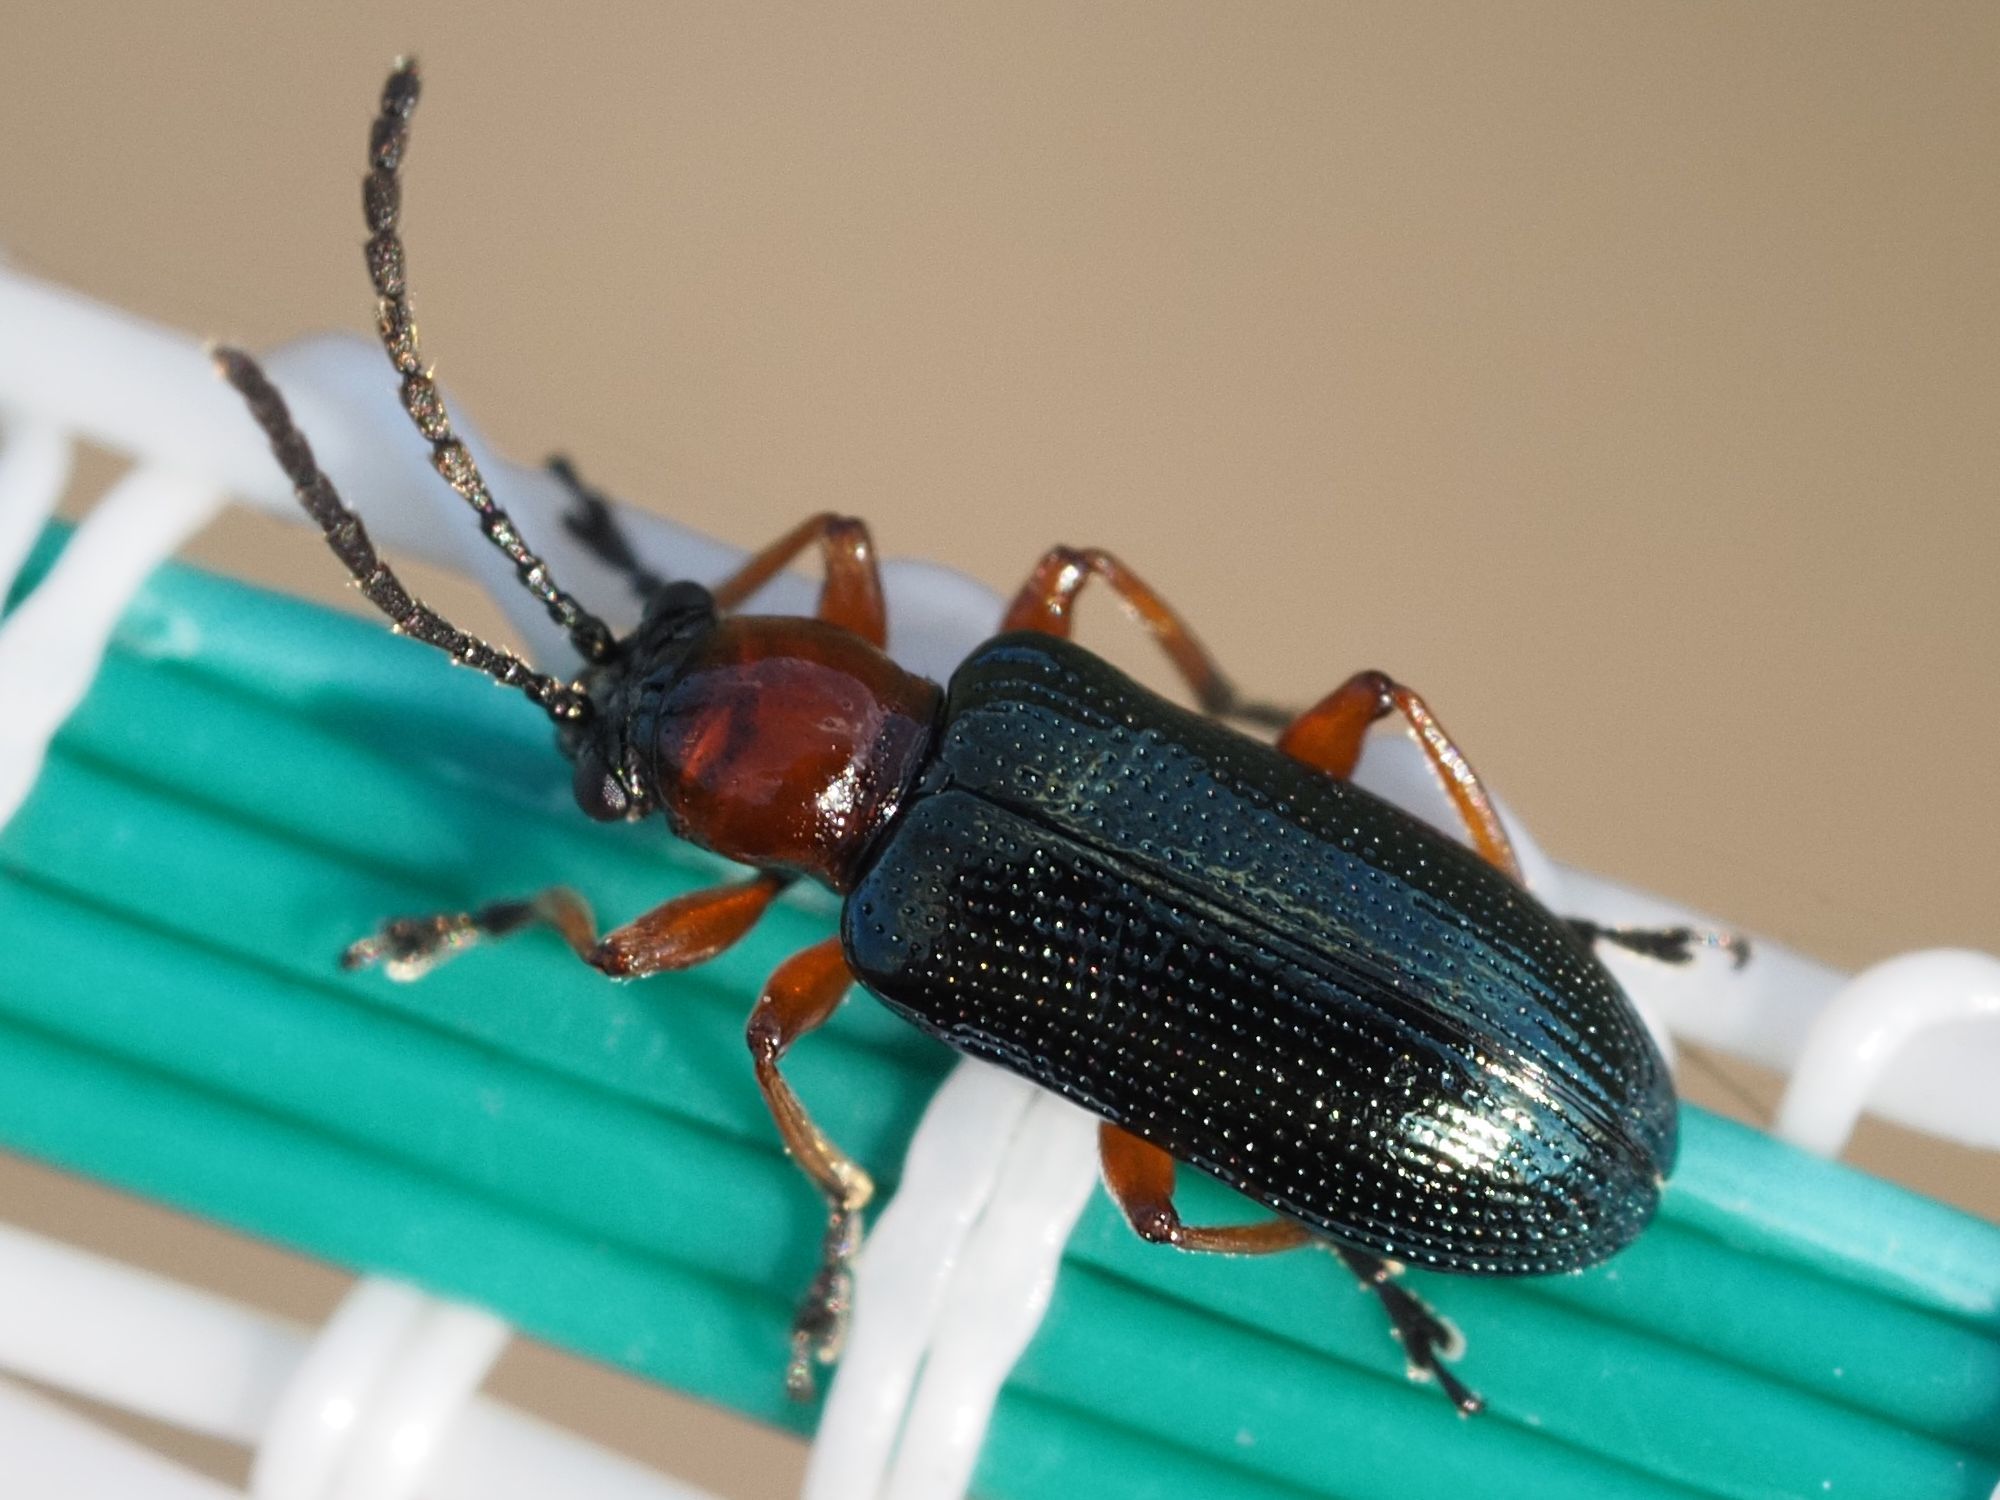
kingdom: Animalia
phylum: Arthropoda
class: Insecta
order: Coleoptera
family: Chrysomelidae
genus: Oulema
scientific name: Oulema
